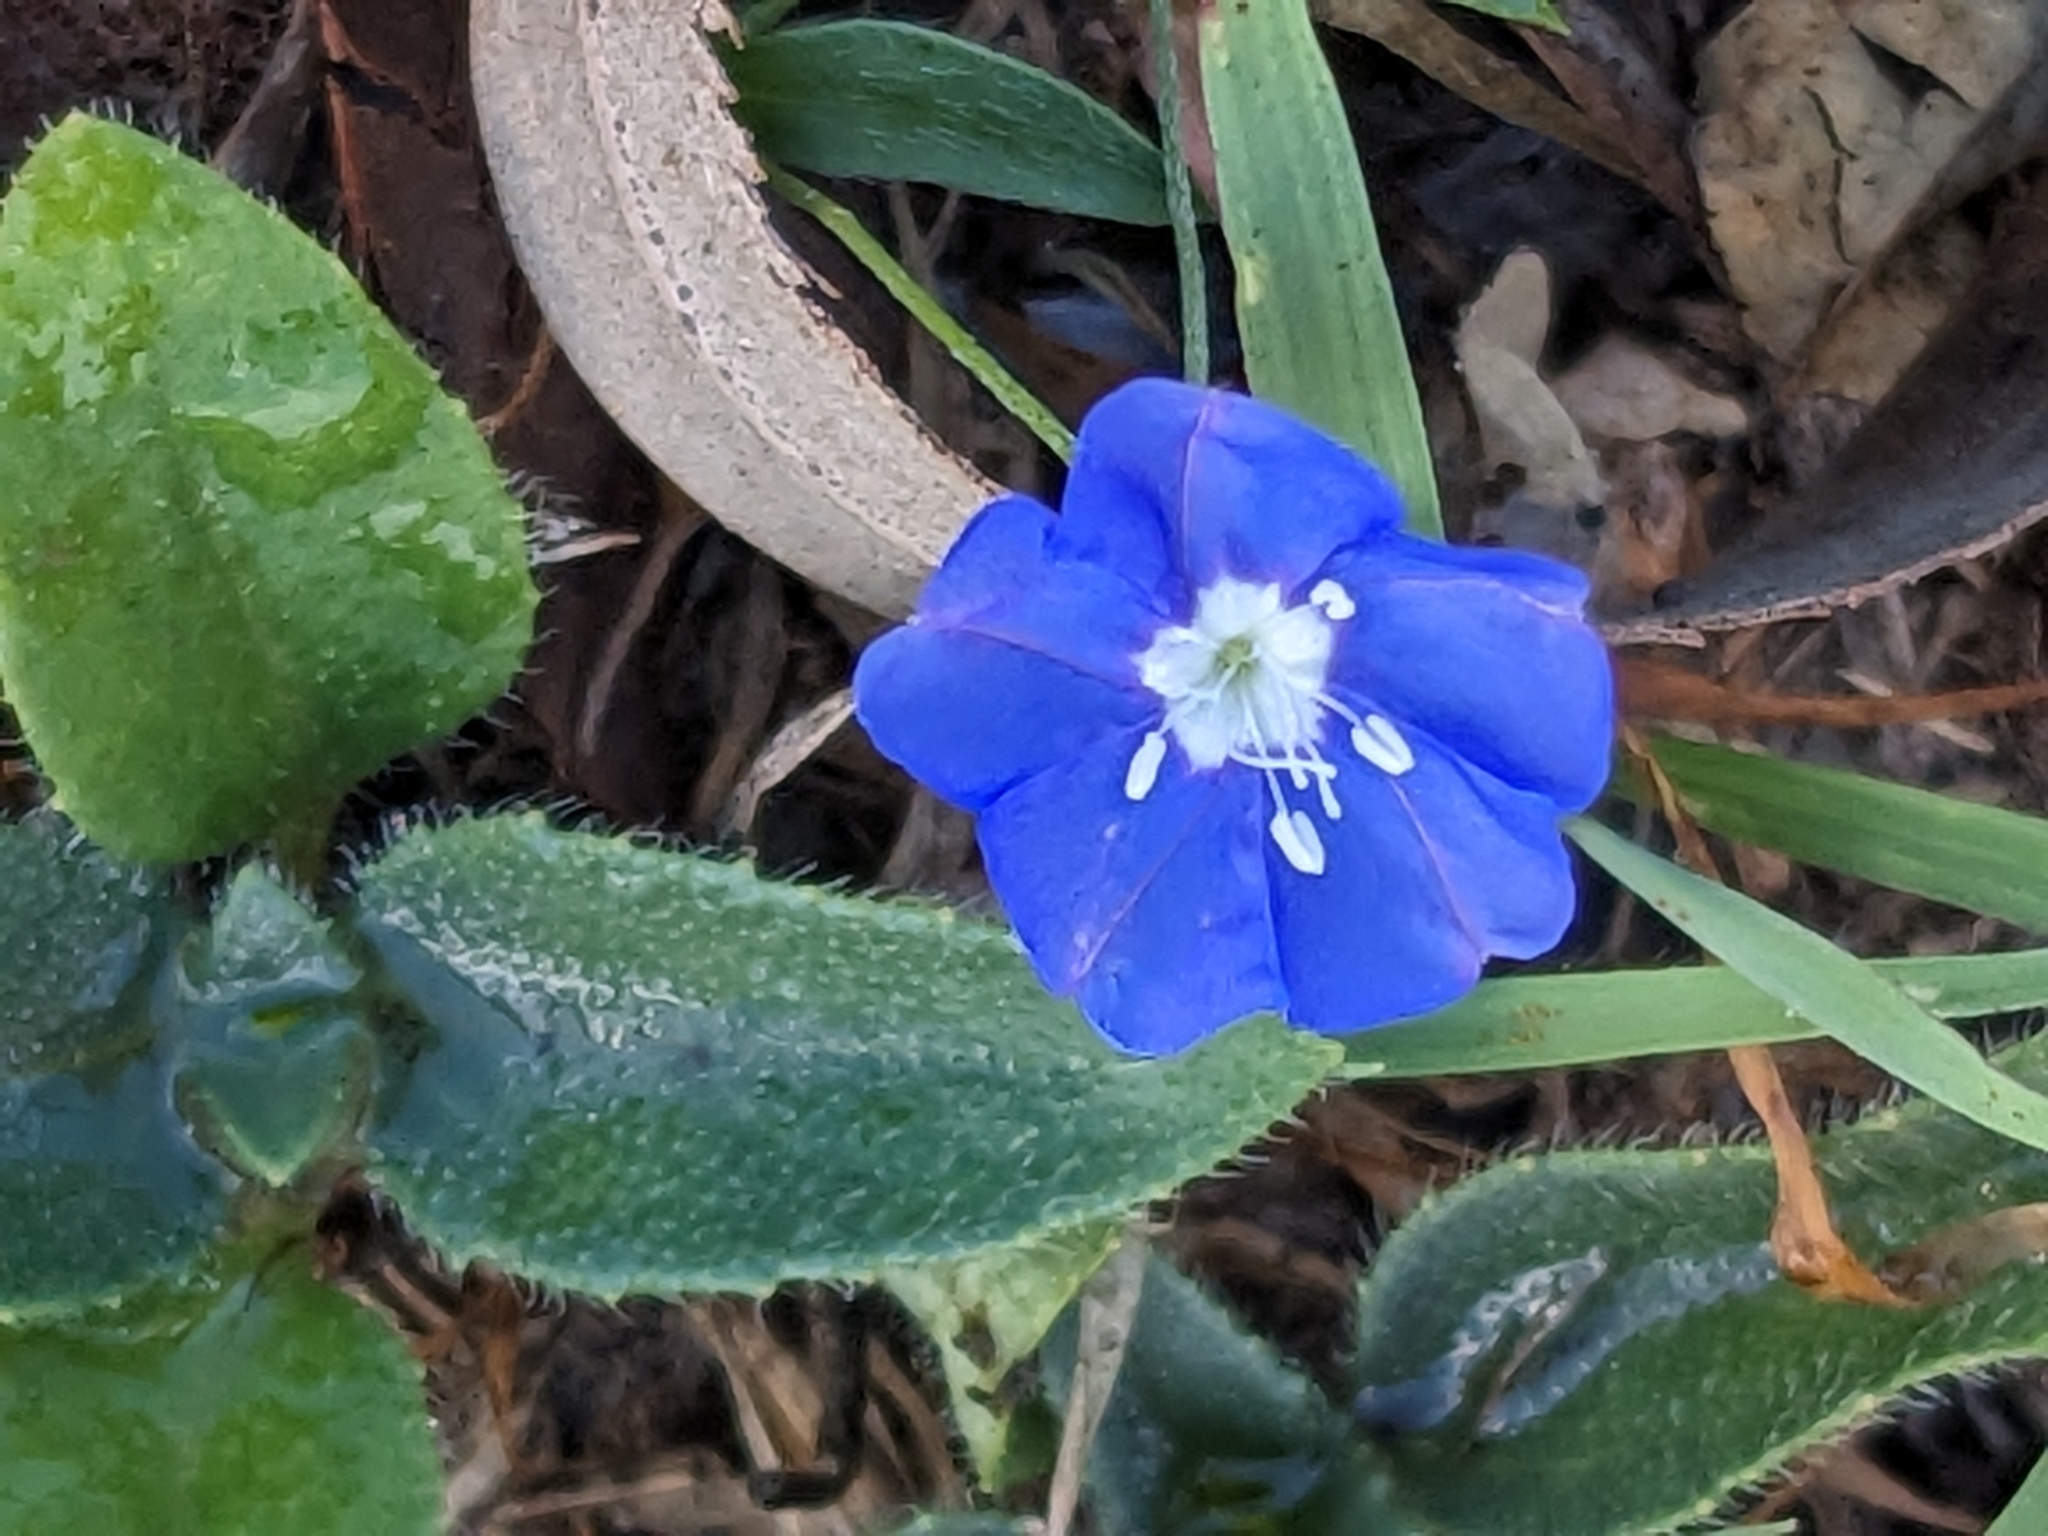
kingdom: Plantae
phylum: Tracheophyta
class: Magnoliopsida
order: Solanales
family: Convolvulaceae
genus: Evolvulus
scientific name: Evolvulus alsinoides
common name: Slender dwarf morning-glory
